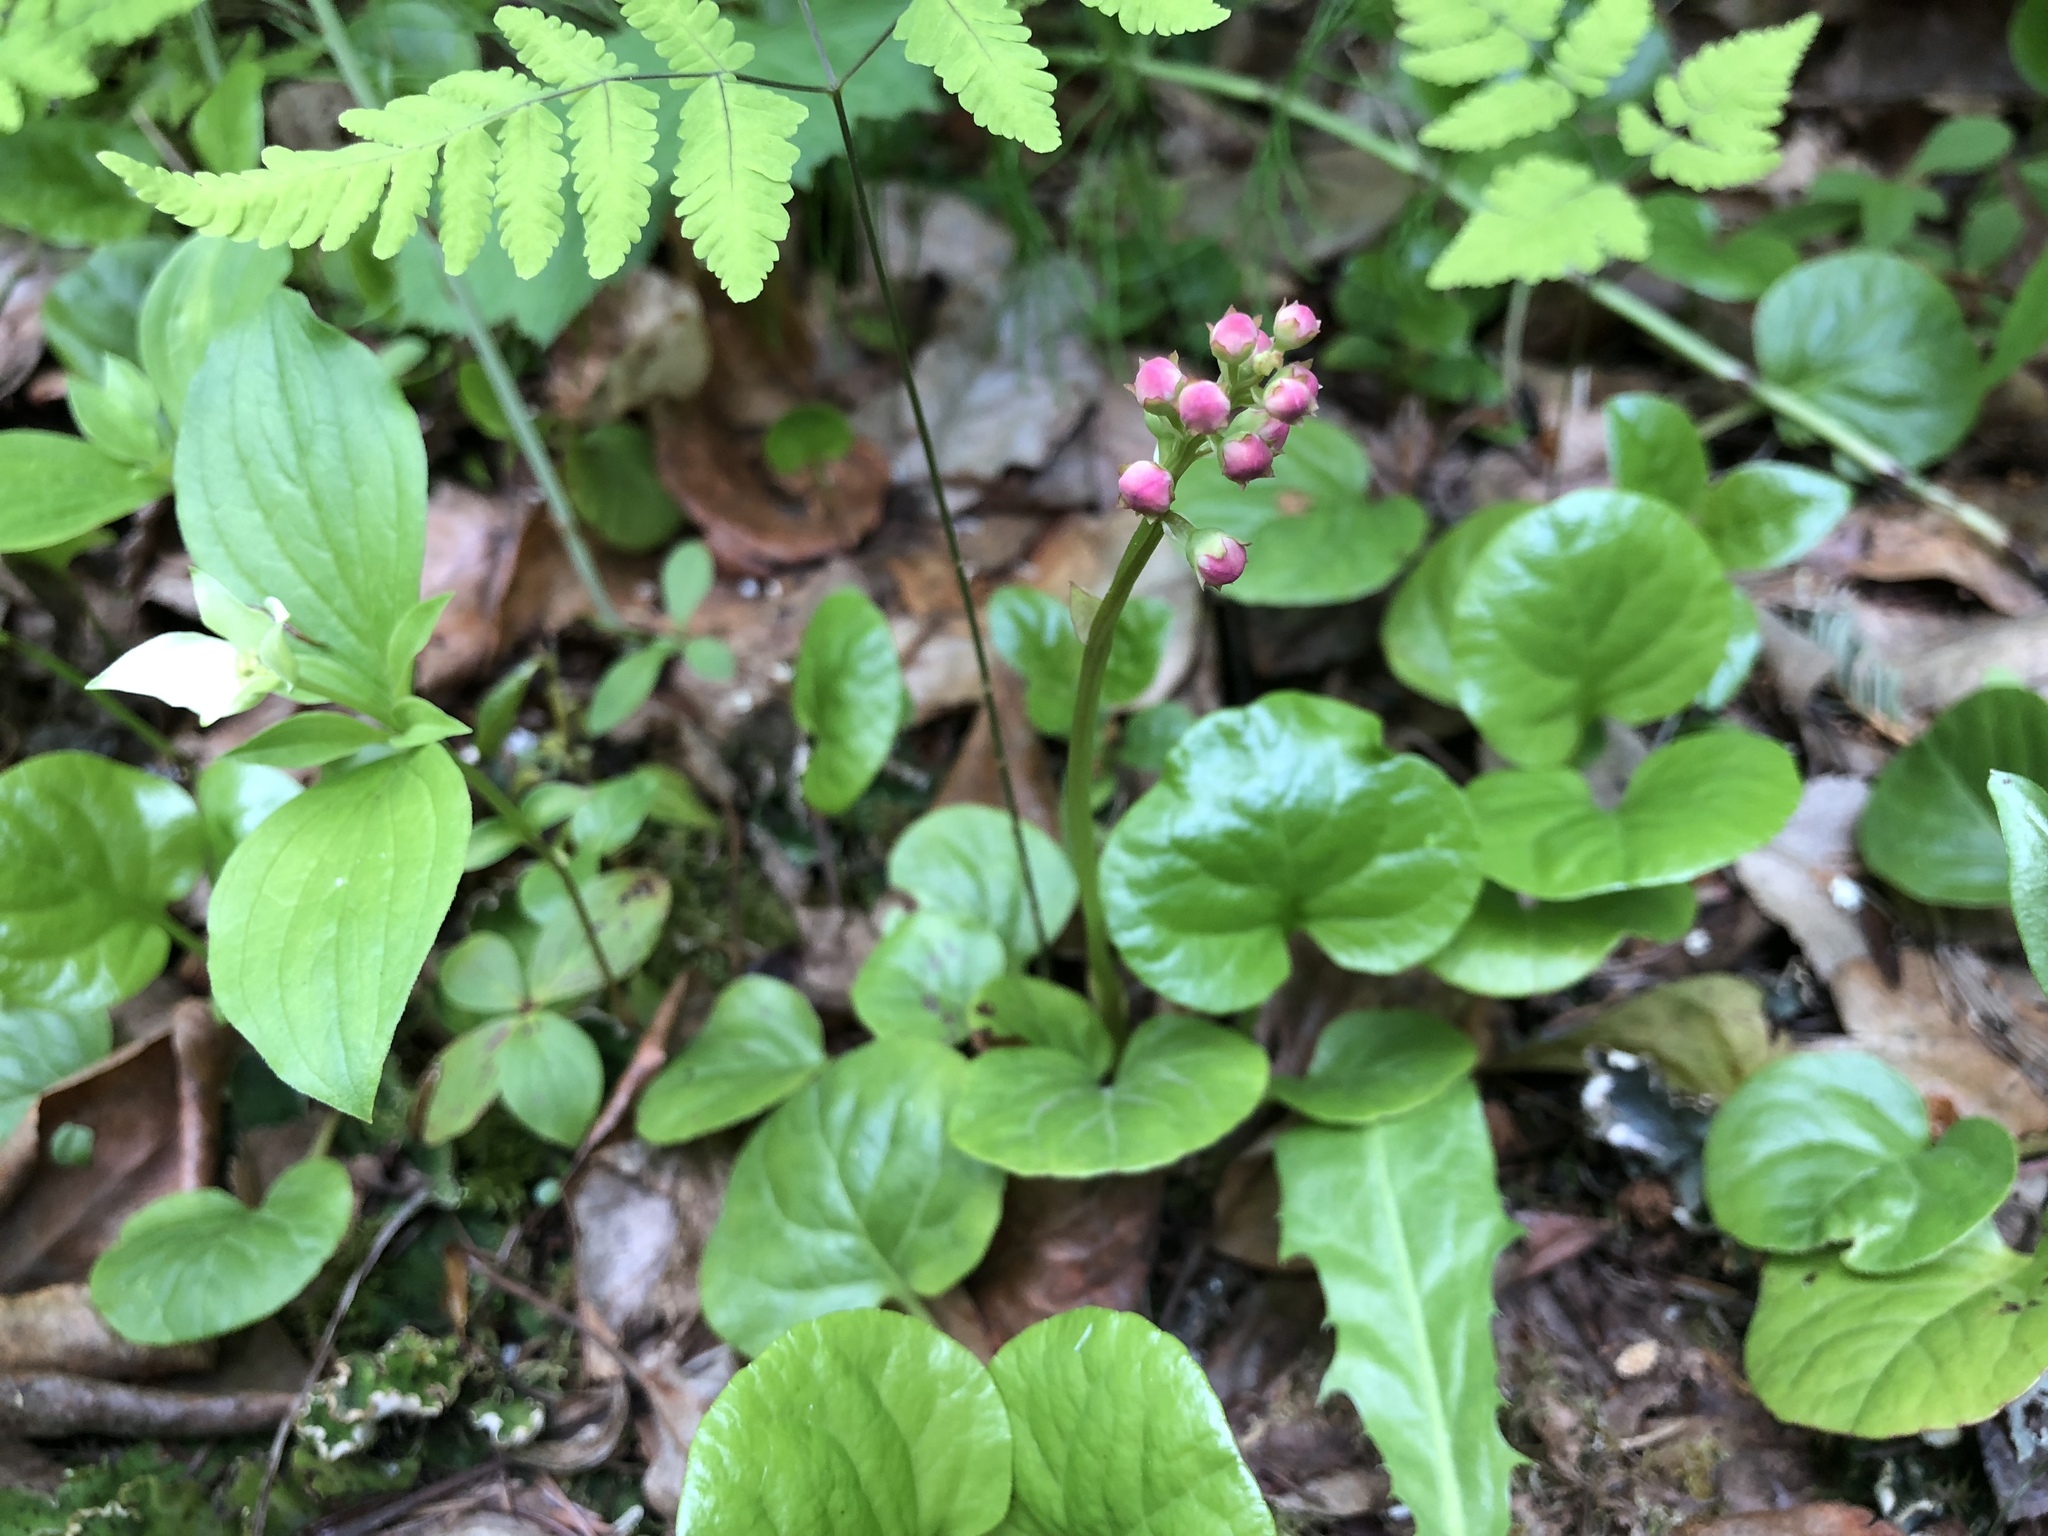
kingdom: Plantae
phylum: Tracheophyta
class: Magnoliopsida
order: Ericales
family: Ericaceae
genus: Pyrola
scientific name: Pyrola asarifolia
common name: Bog wintergreen
